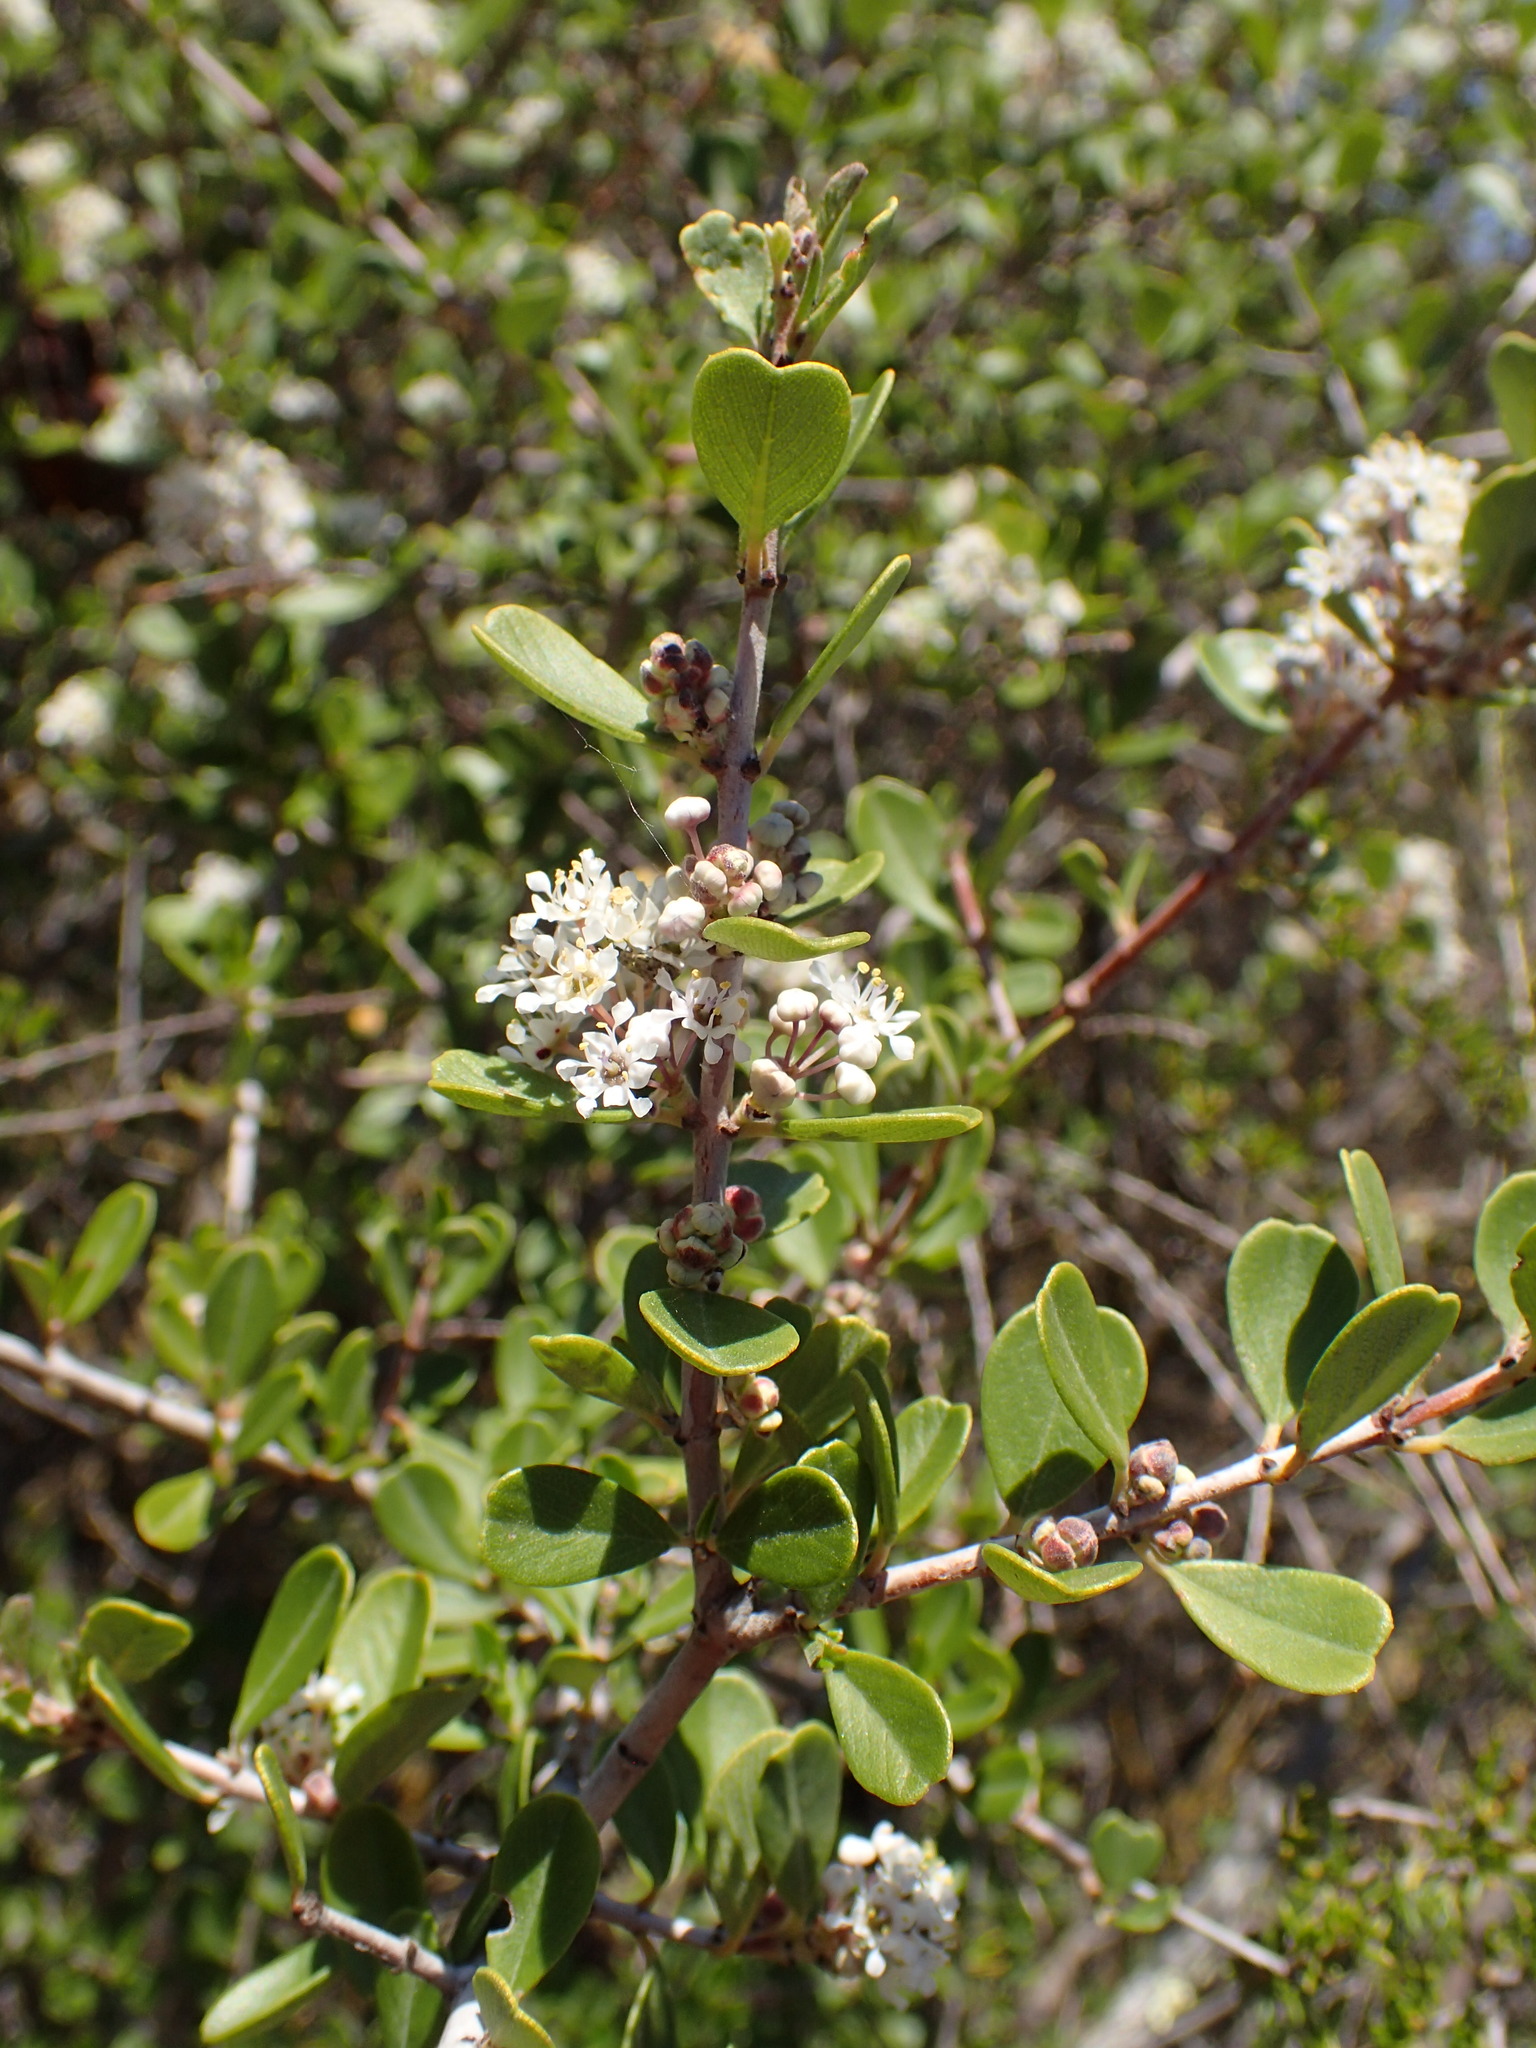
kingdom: Plantae
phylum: Tracheophyta
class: Magnoliopsida
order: Rosales
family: Rhamnaceae
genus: Ceanothus
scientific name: Ceanothus cuneatus
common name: Cuneate ceanothus
